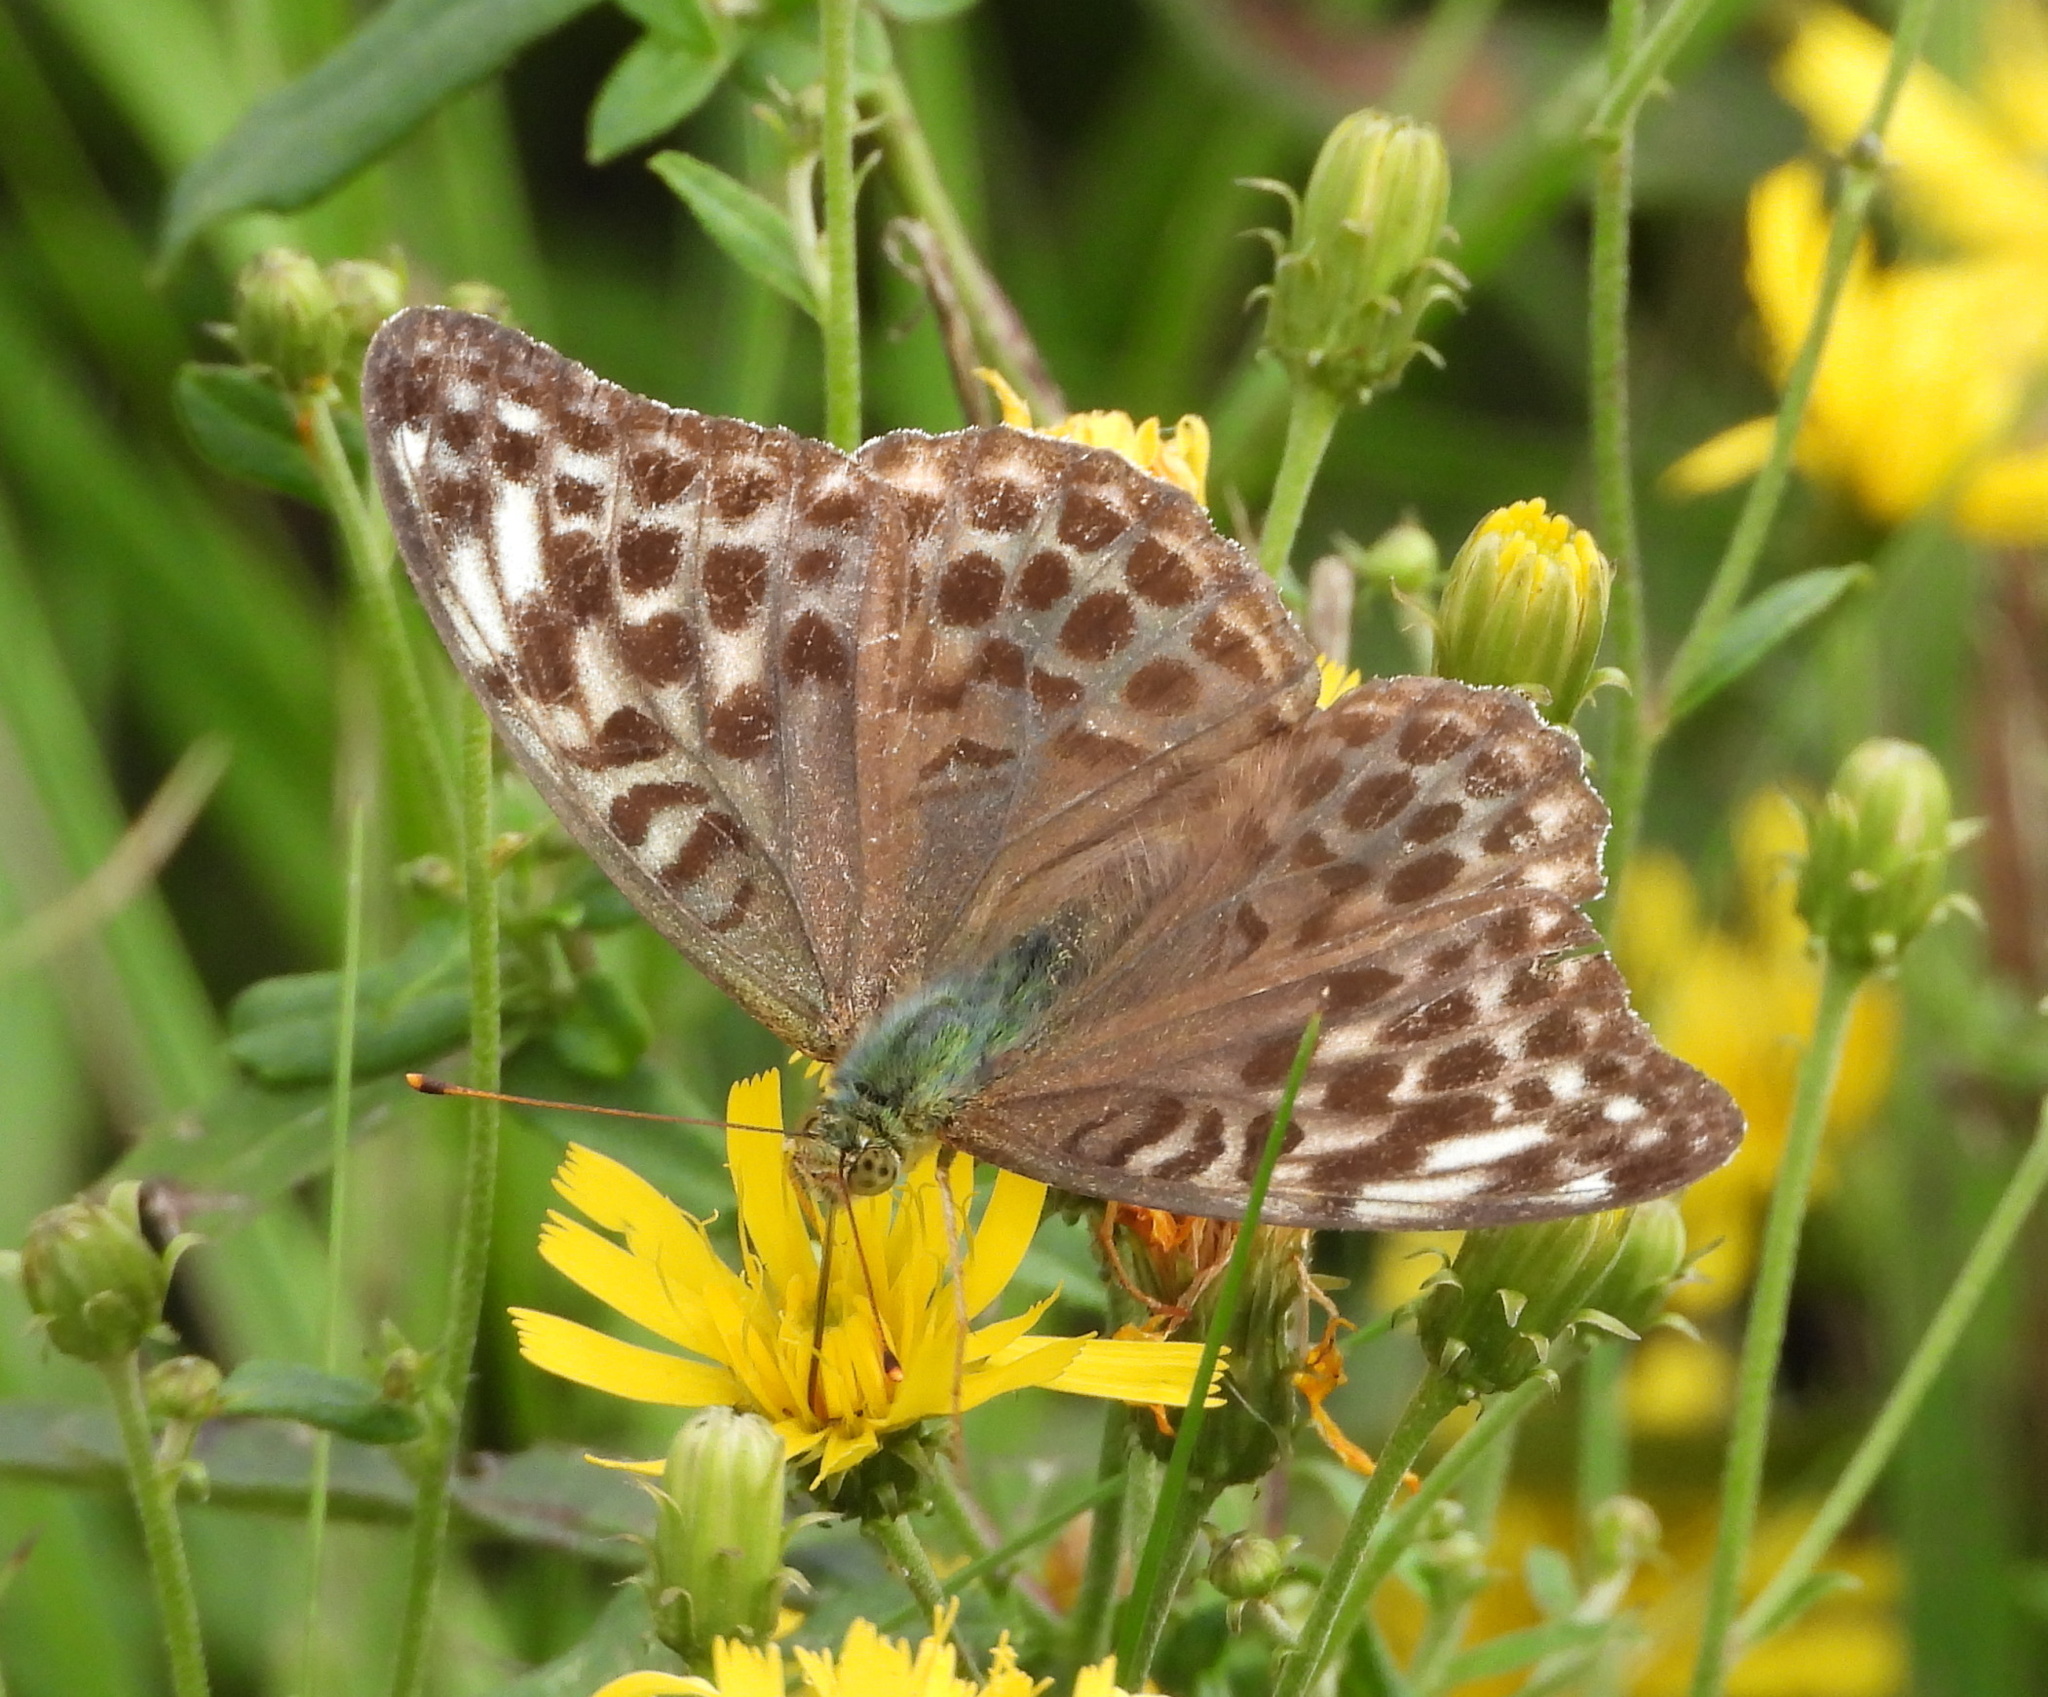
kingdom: Animalia
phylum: Arthropoda
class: Insecta
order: Lepidoptera
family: Nymphalidae
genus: Argynnis
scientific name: Argynnis paphia
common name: Silver-washed fritillary
